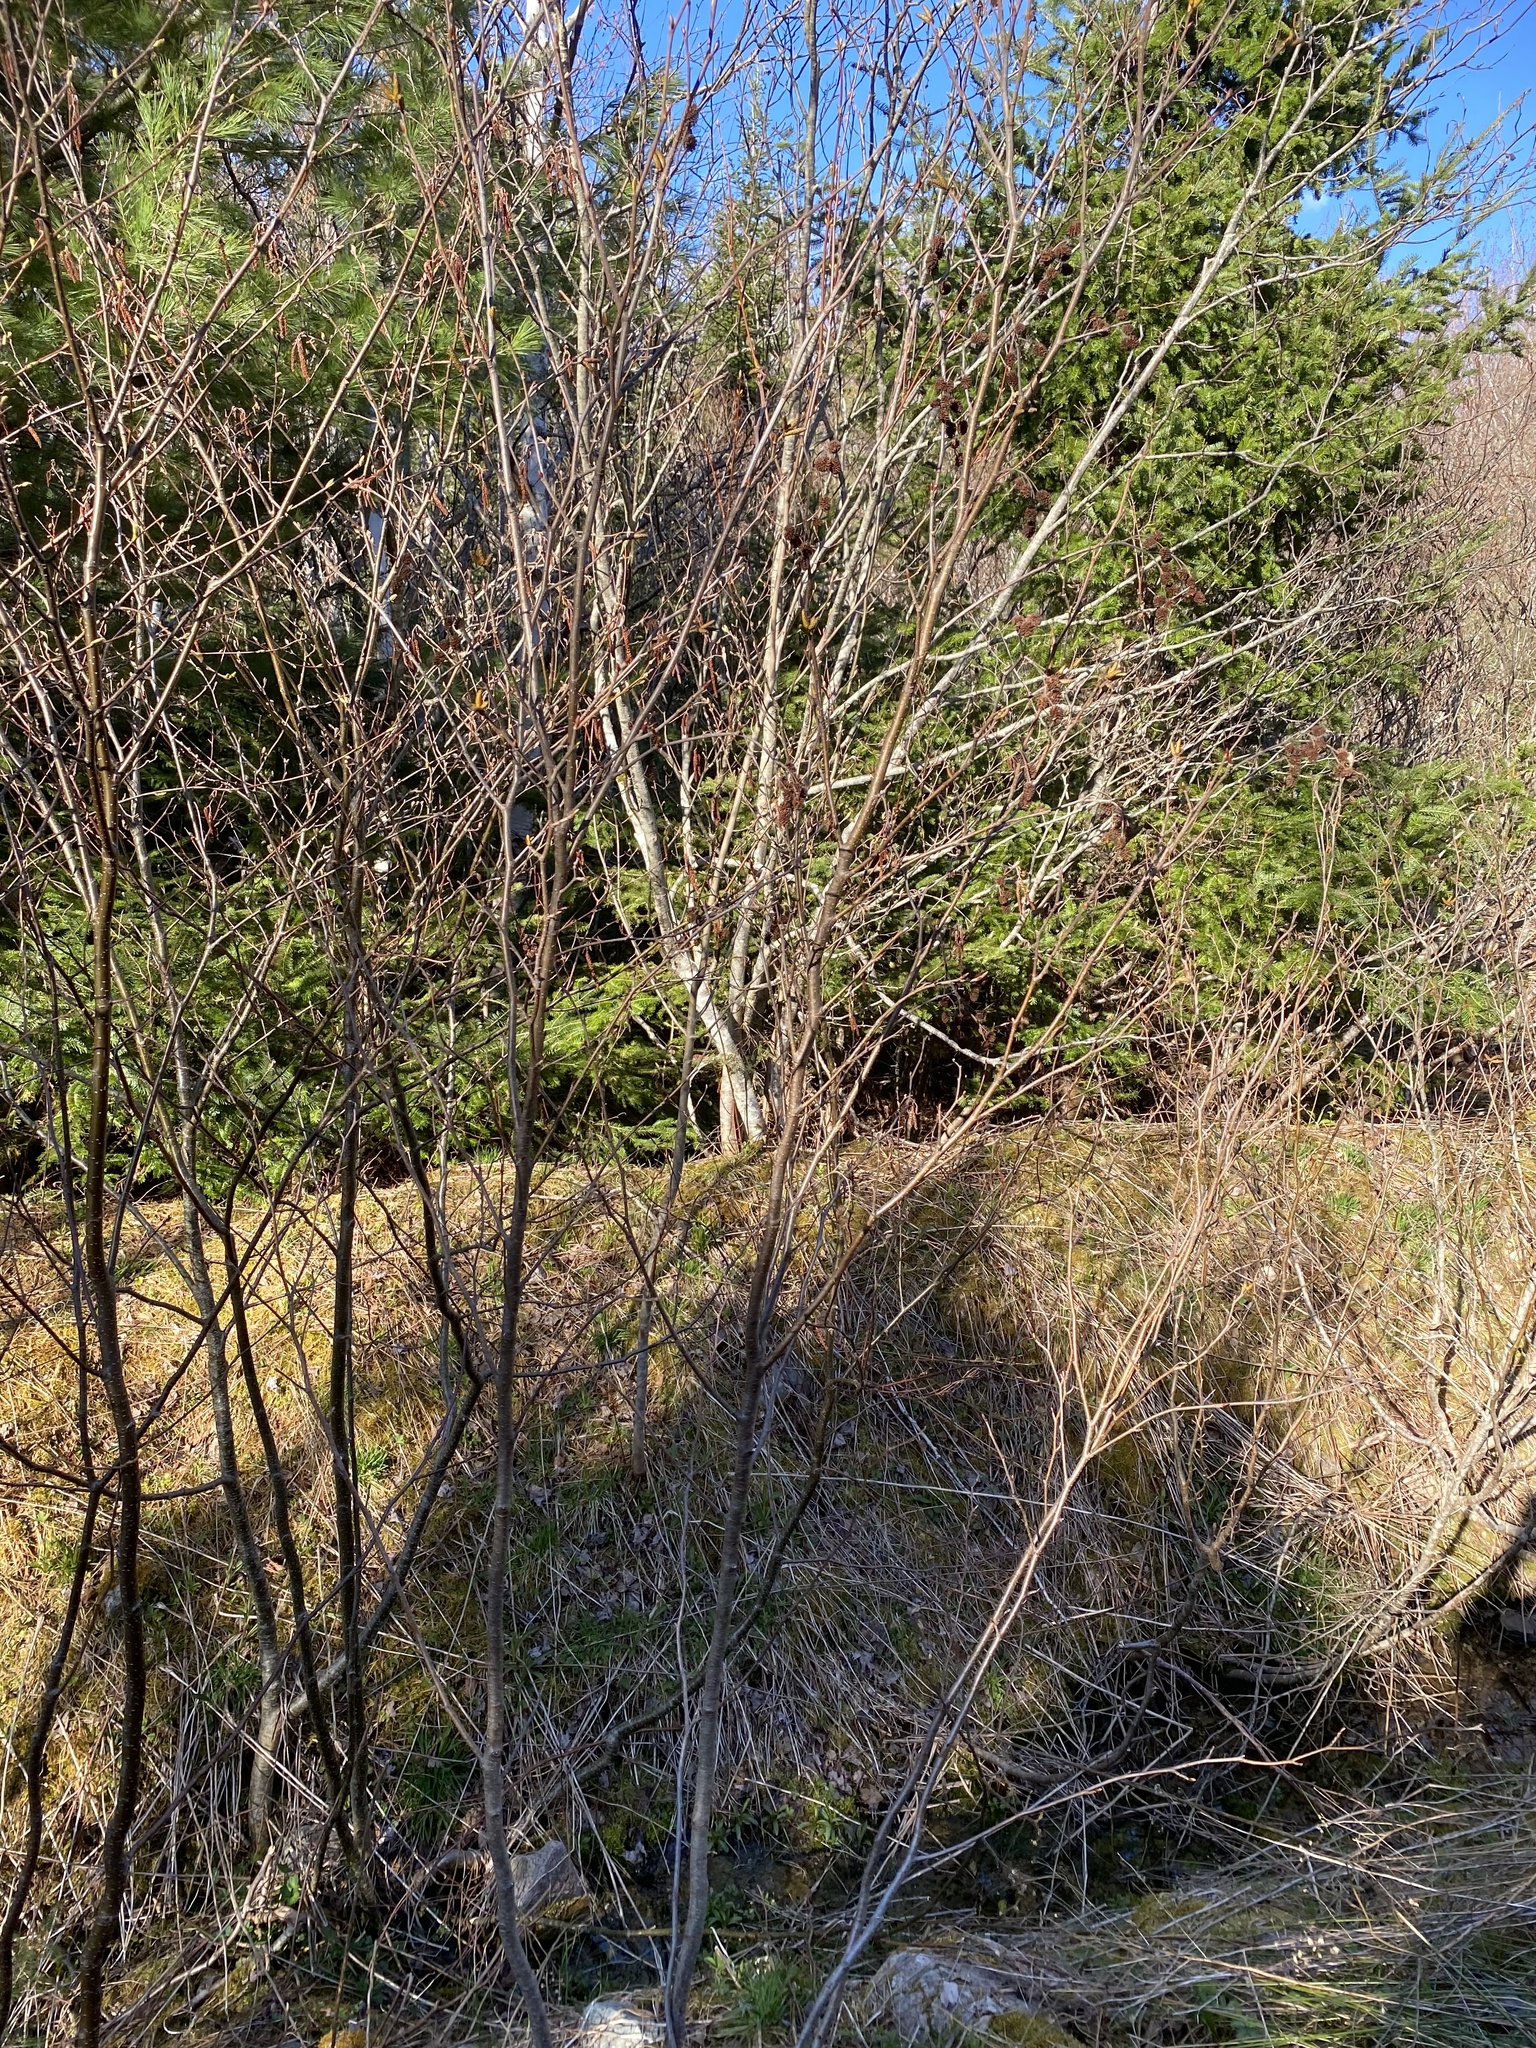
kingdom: Plantae
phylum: Tracheophyta
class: Magnoliopsida
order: Fagales
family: Betulaceae
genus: Alnus
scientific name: Alnus incana
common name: Grey alder
